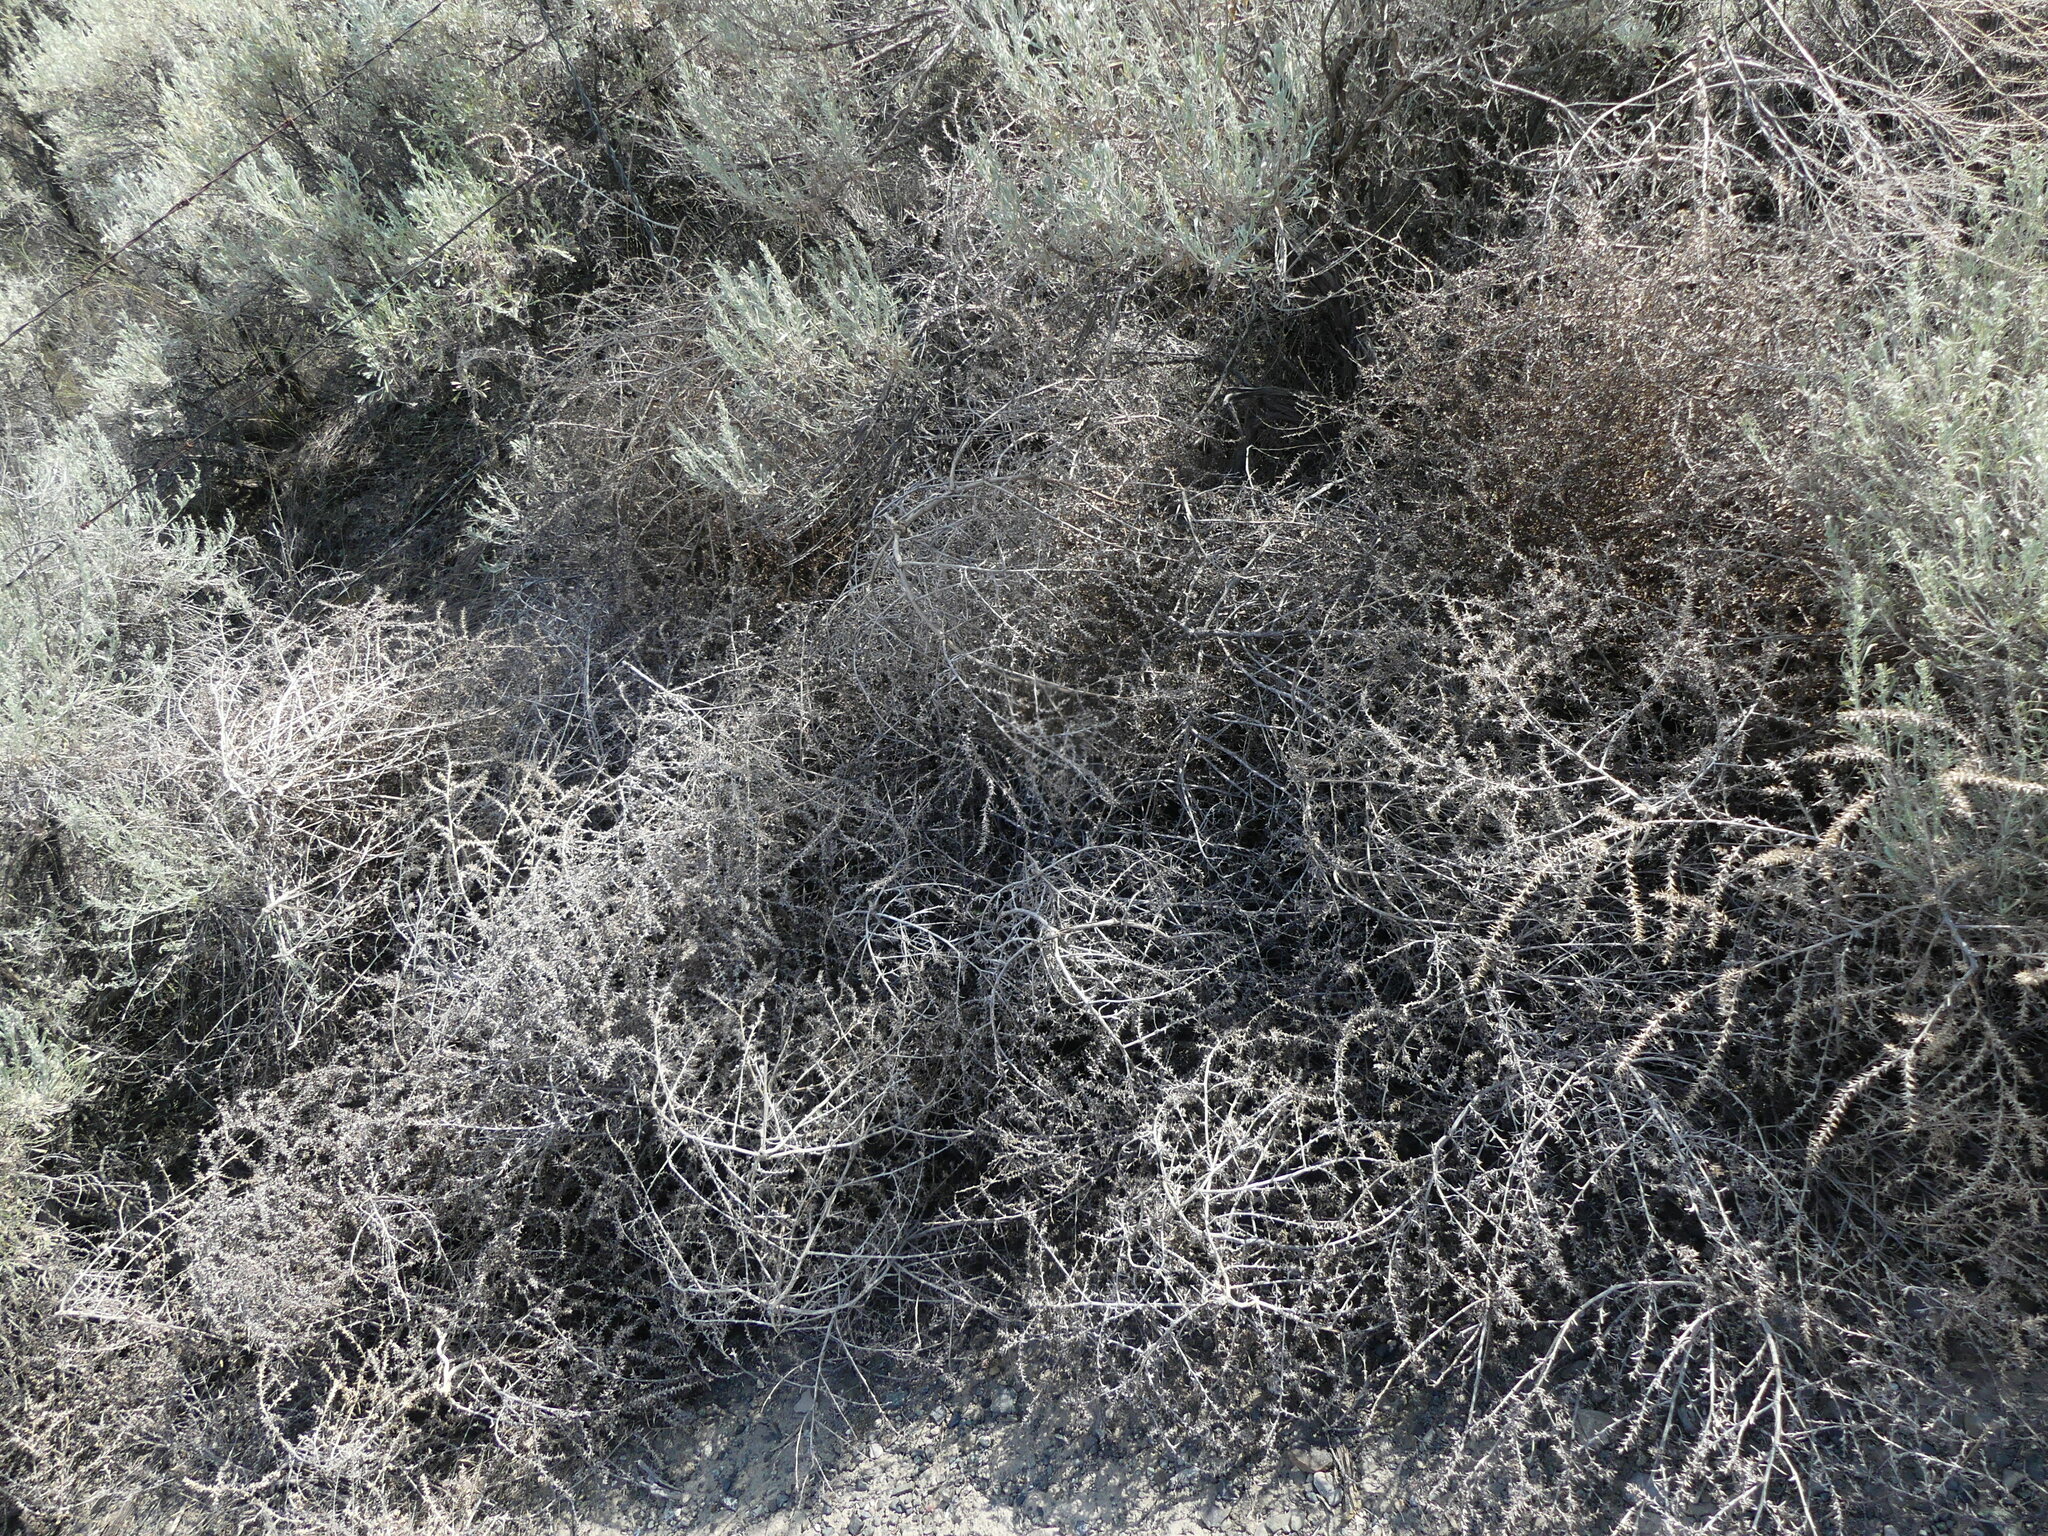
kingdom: Plantae
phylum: Tracheophyta
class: Magnoliopsida
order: Caryophyllales
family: Amaranthaceae
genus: Salsola
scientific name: Salsola tragus
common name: Prickly russian thistle
